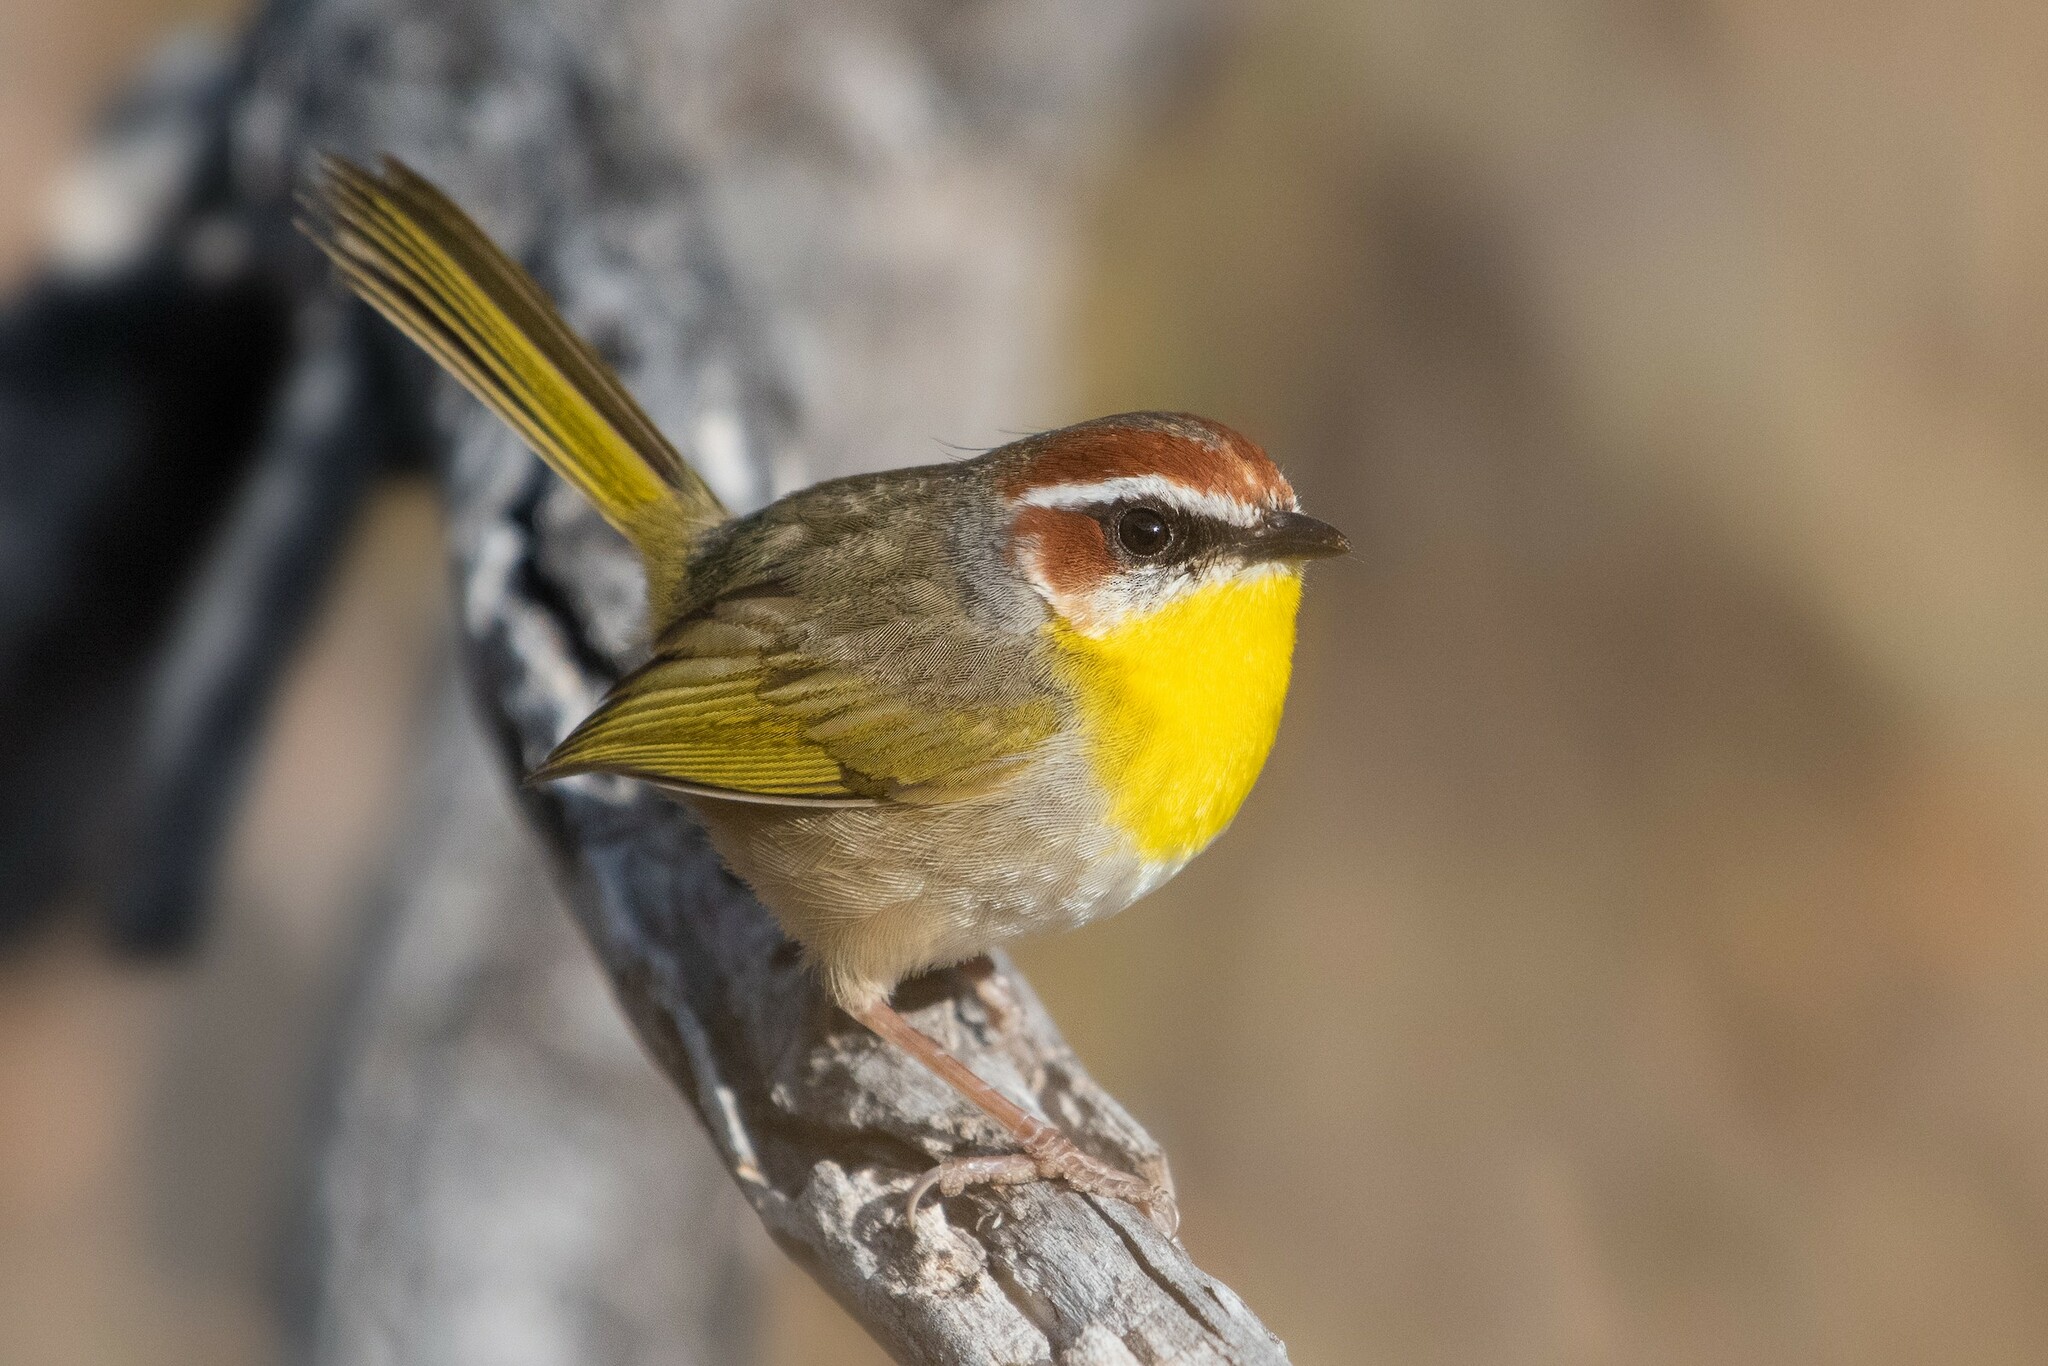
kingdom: Animalia
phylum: Chordata
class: Aves
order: Passeriformes
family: Parulidae
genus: Basileuterus
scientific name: Basileuterus rufifrons
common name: Rufous-capped warbler
